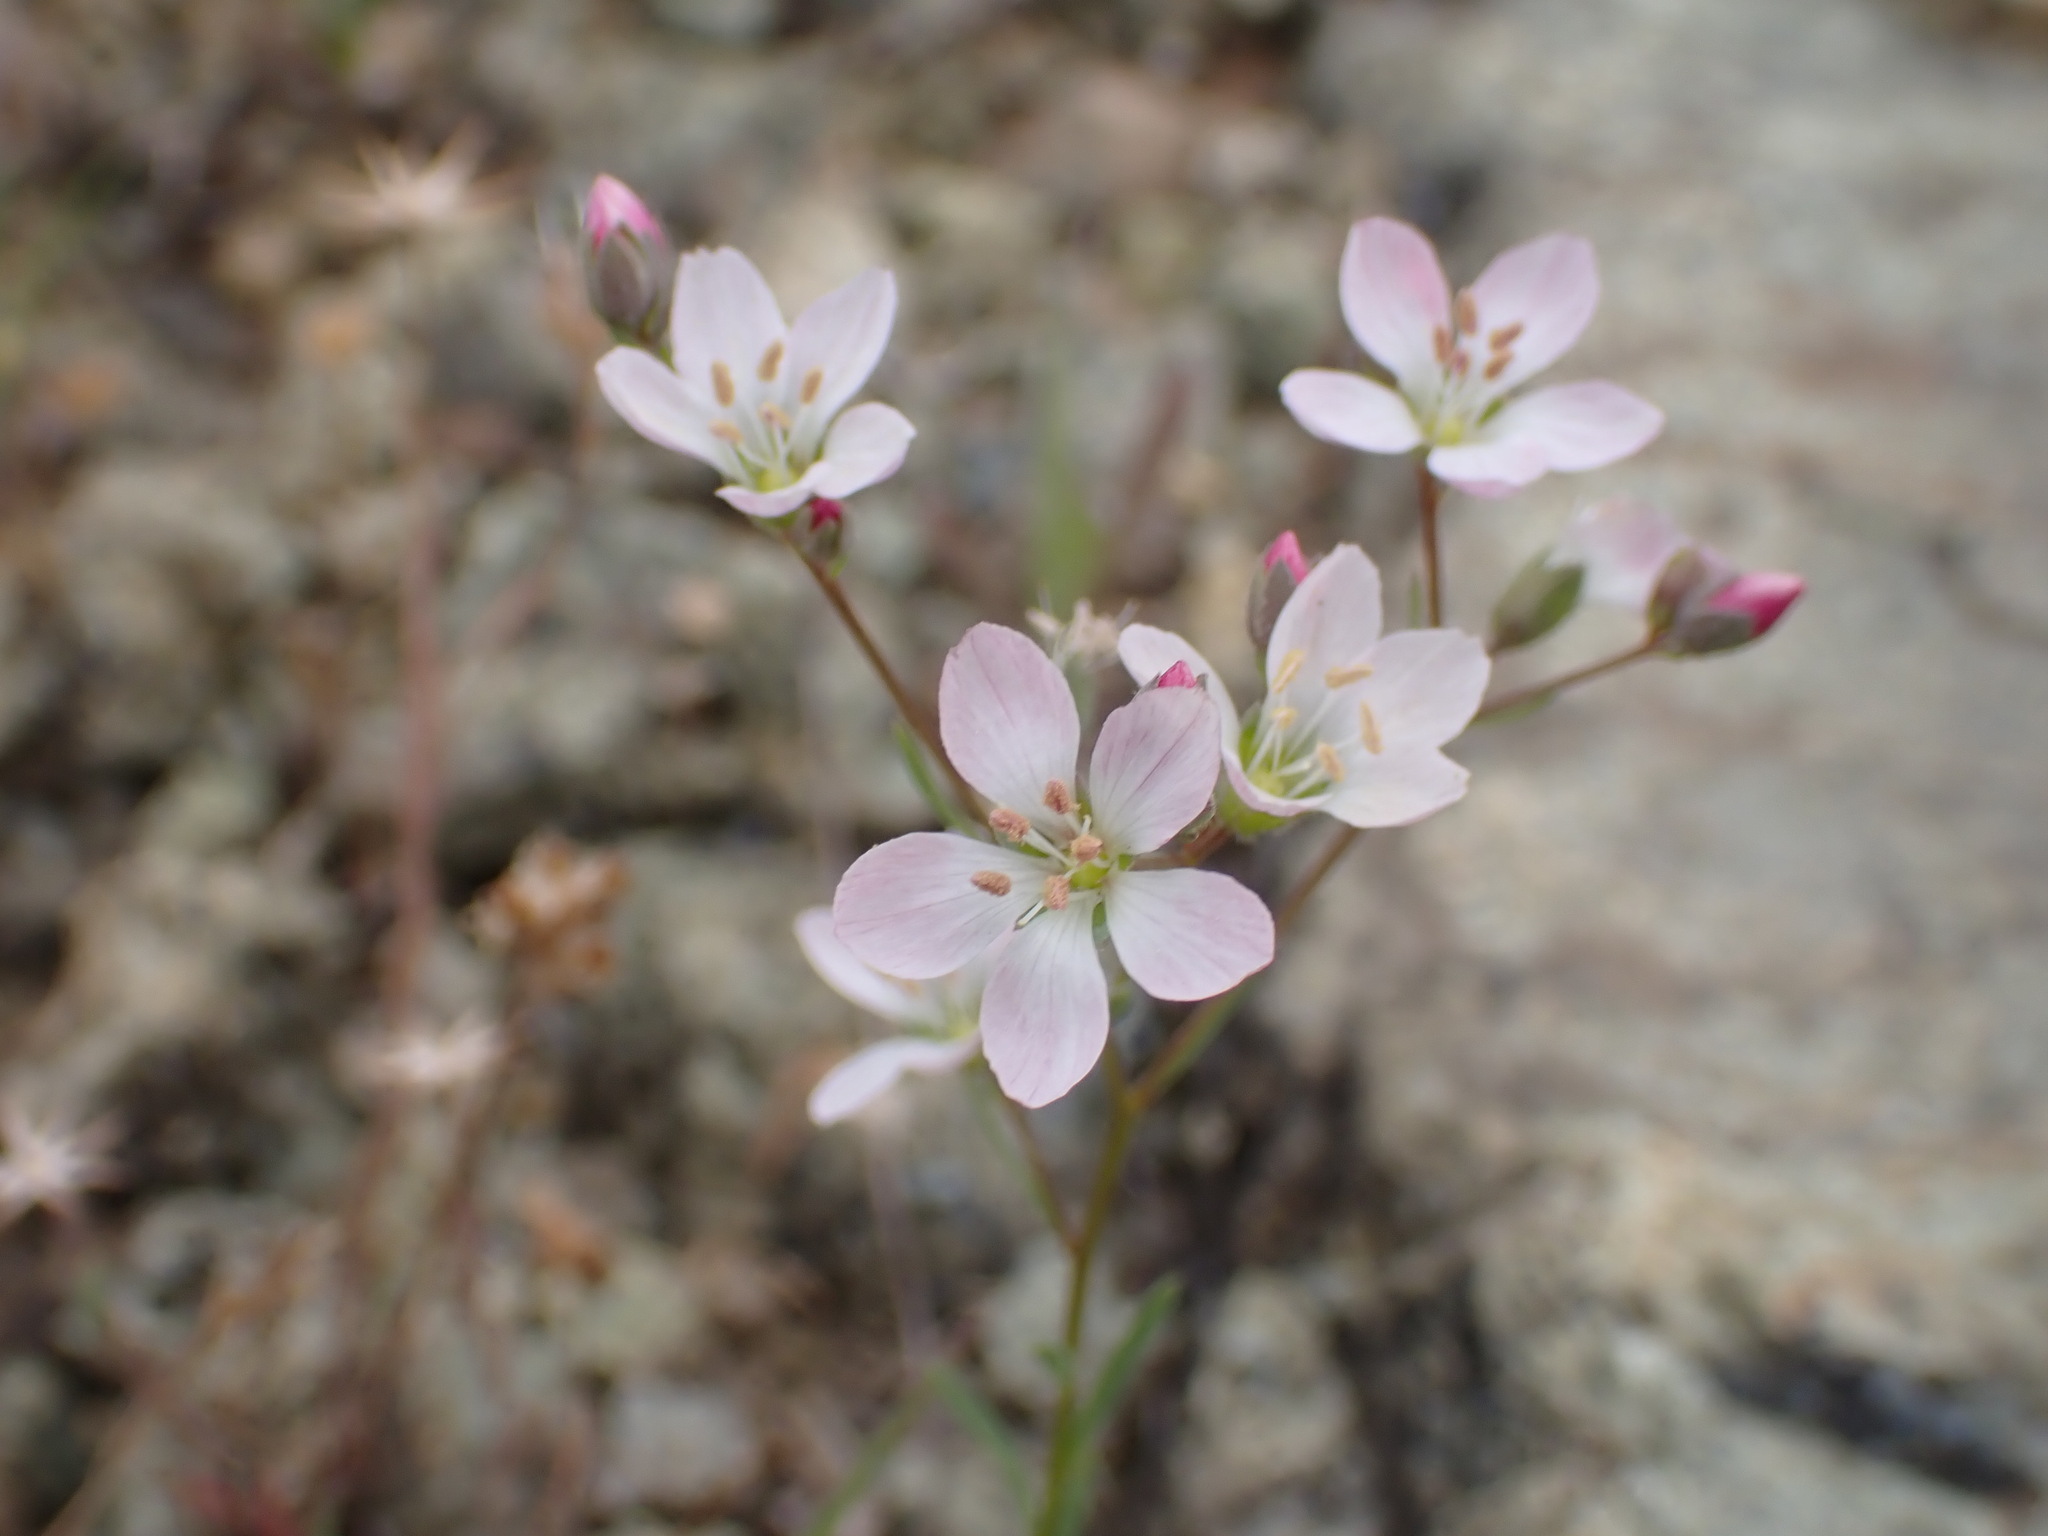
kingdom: Plantae
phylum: Tracheophyta
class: Magnoliopsida
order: Malpighiales
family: Linaceae
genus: Hesperolinon
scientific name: Hesperolinon congestum
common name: Marin dwarf-flax
